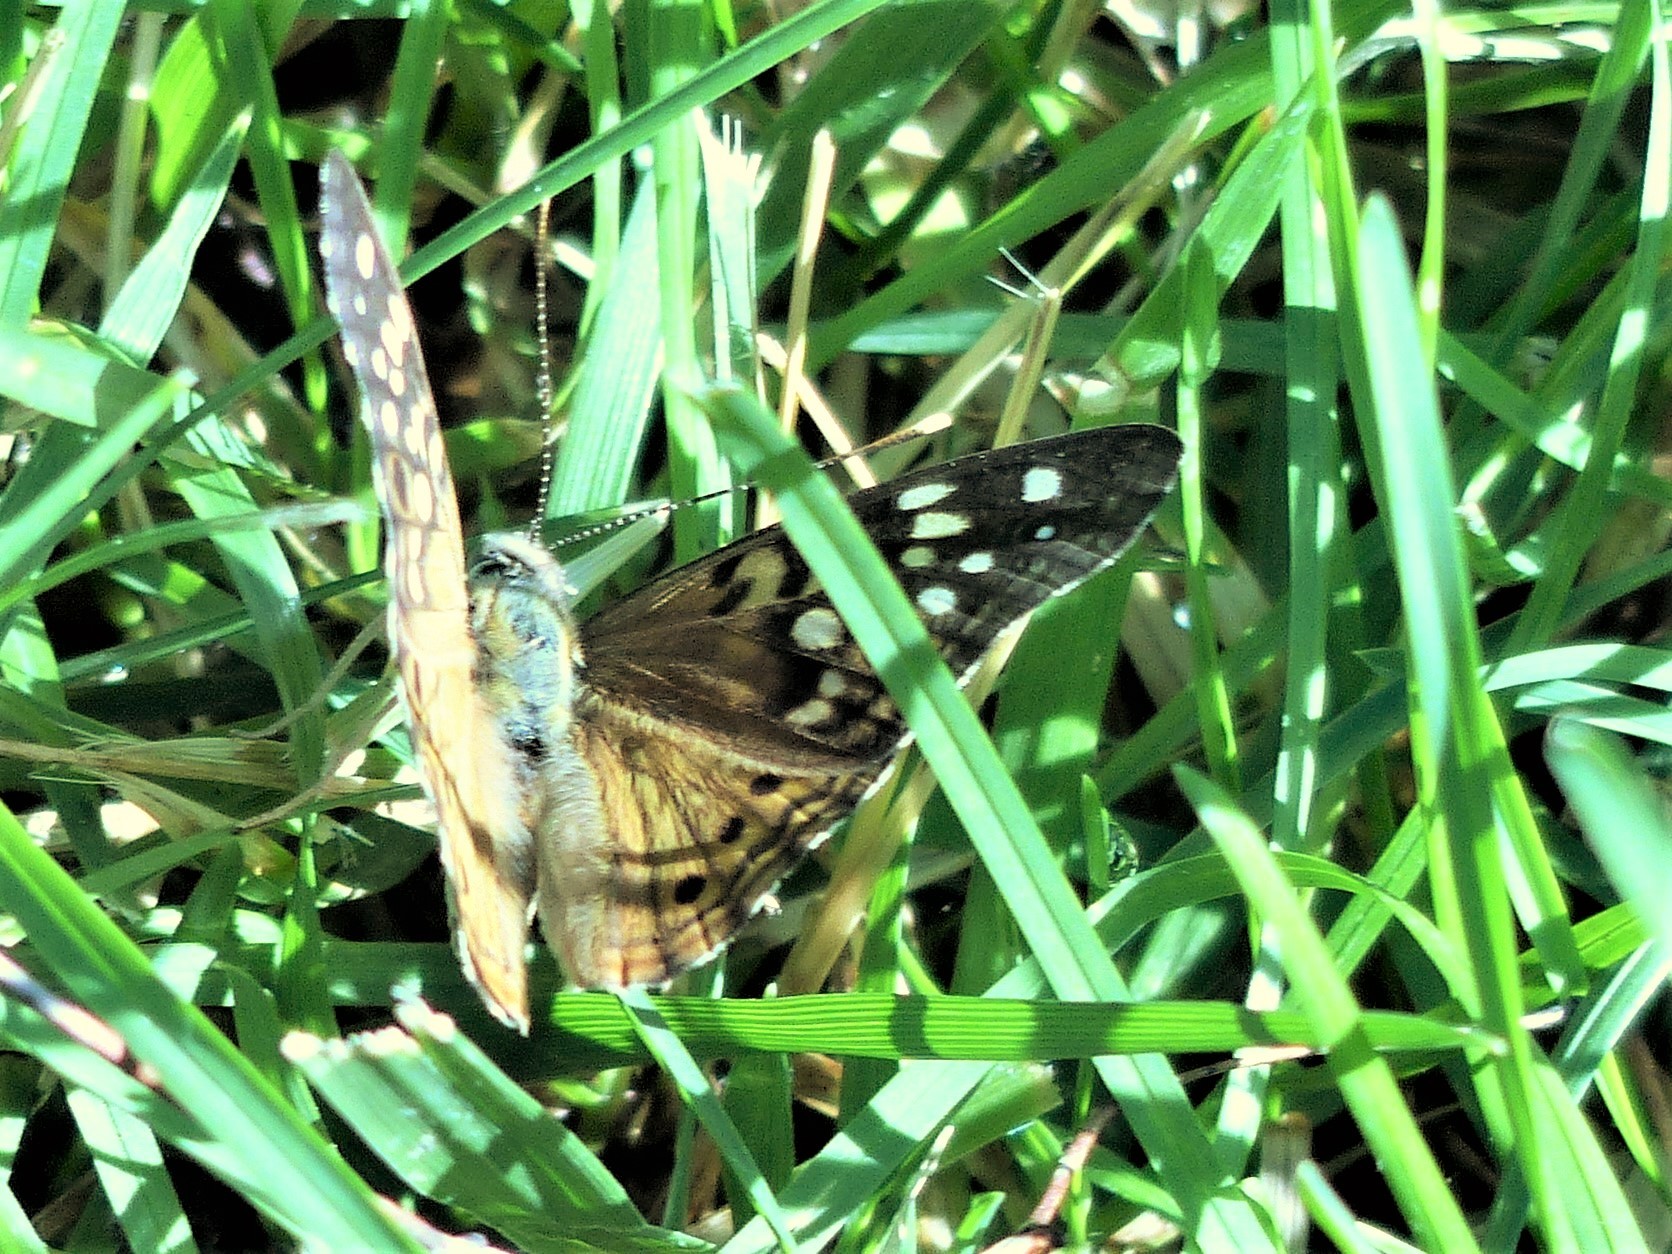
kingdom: Animalia
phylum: Arthropoda
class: Insecta
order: Lepidoptera
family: Nymphalidae
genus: Asterocampa
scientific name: Asterocampa celtis
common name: Hackberry emperor
